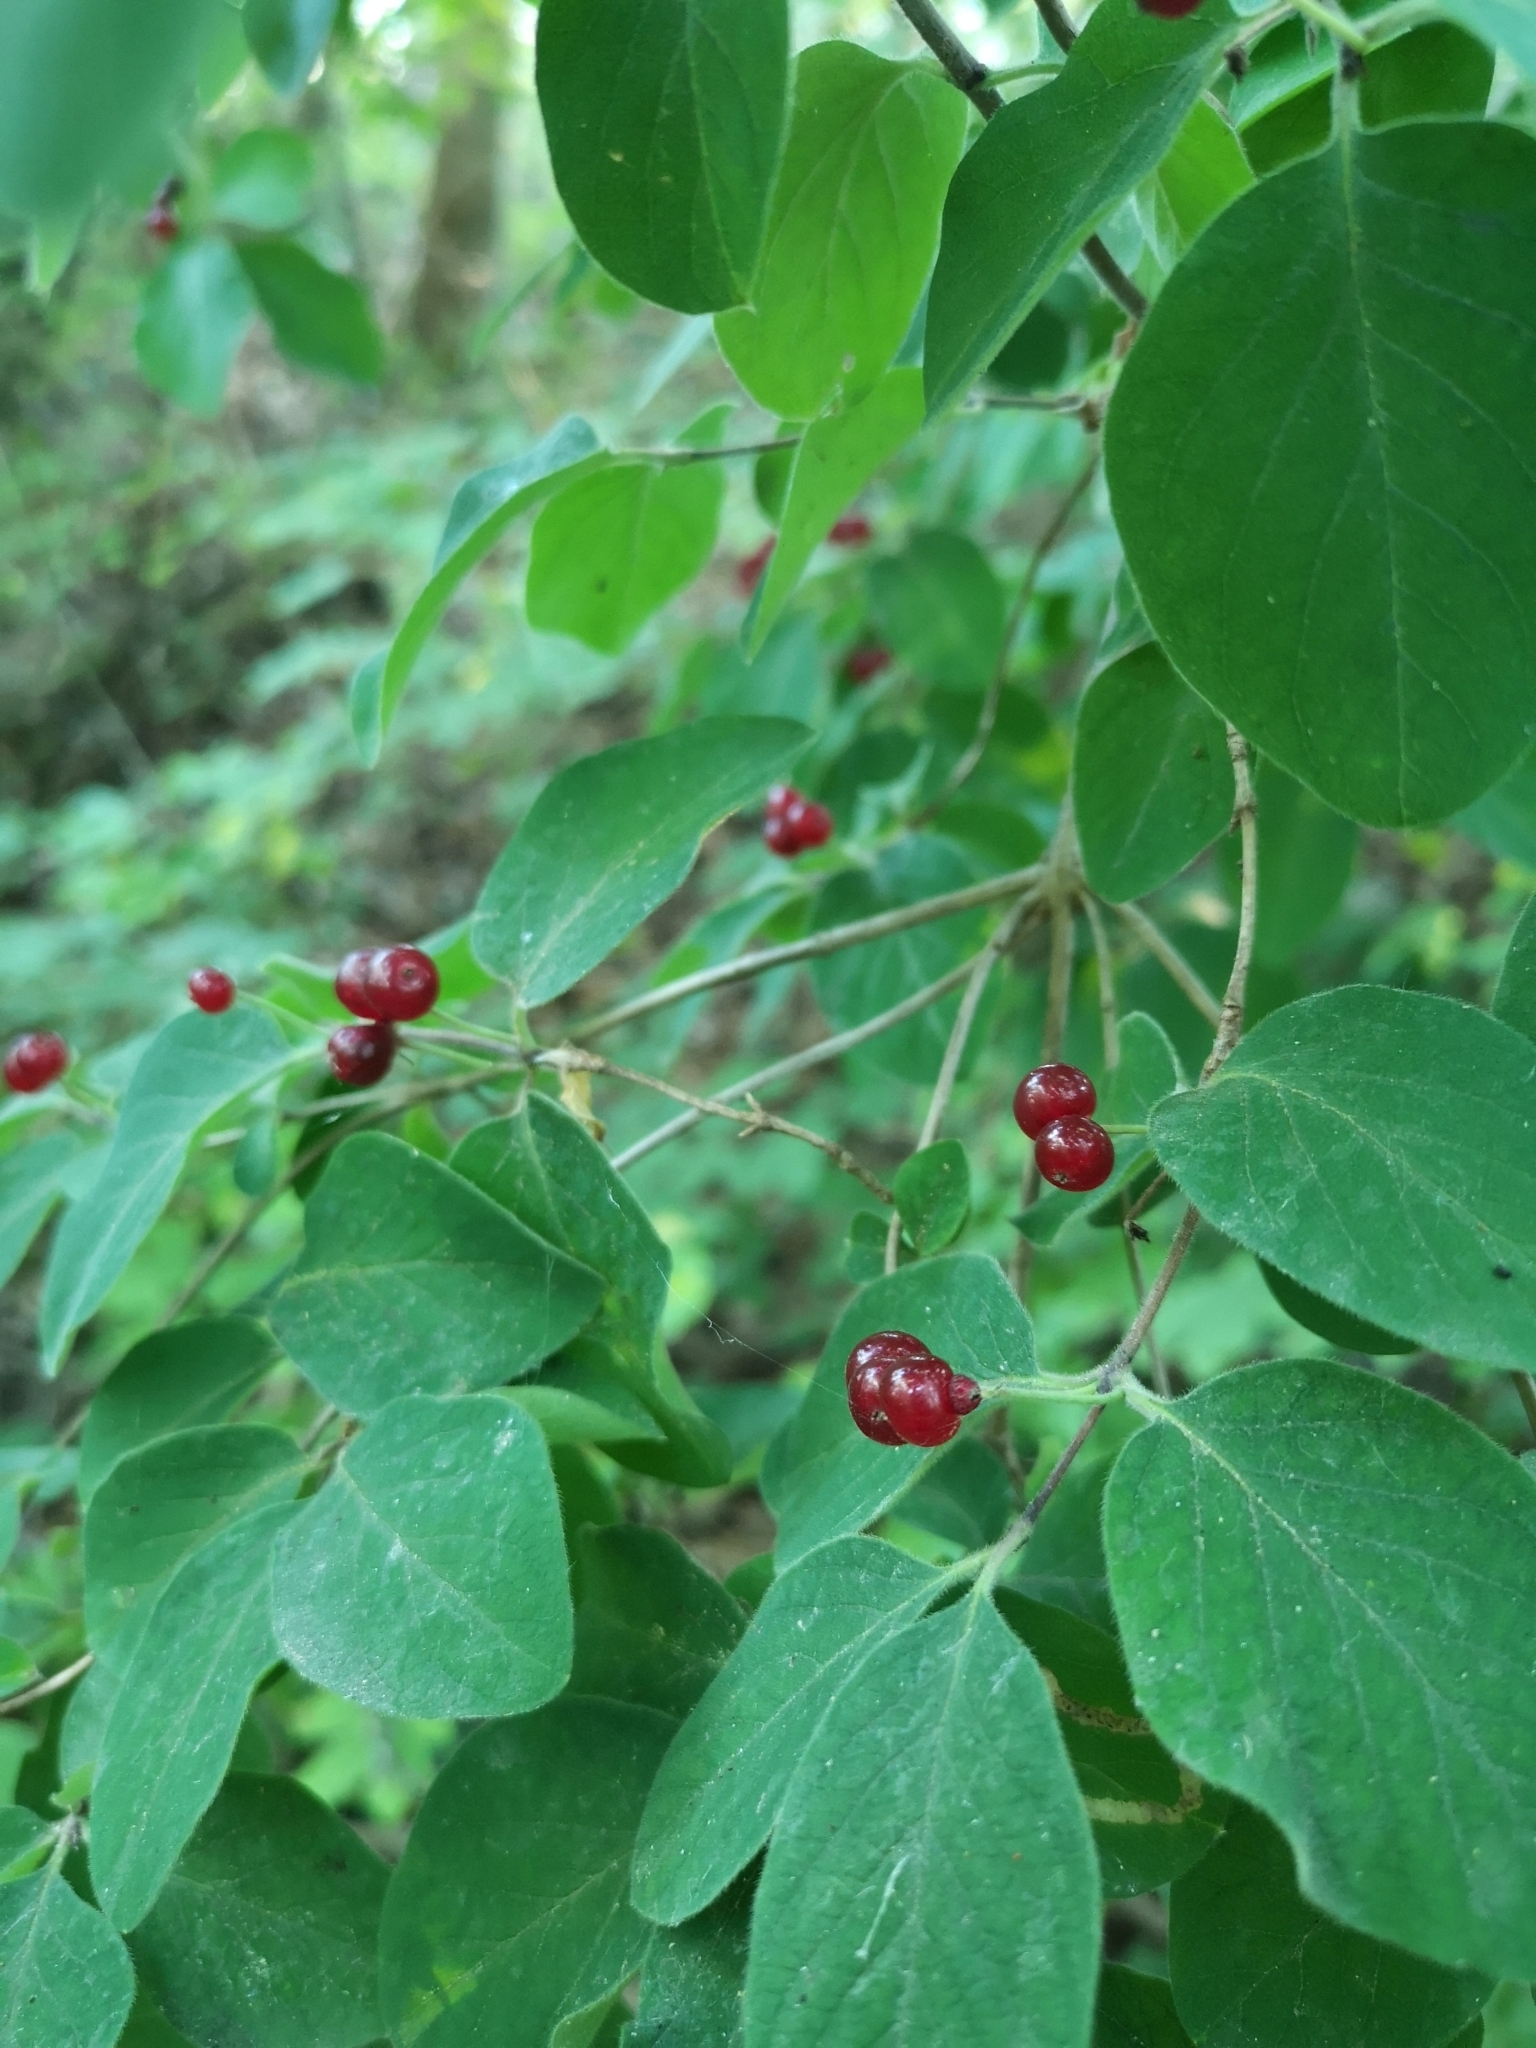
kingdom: Plantae
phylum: Tracheophyta
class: Magnoliopsida
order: Dipsacales
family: Caprifoliaceae
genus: Lonicera
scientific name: Lonicera xylosteum
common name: Fly honeysuckle
